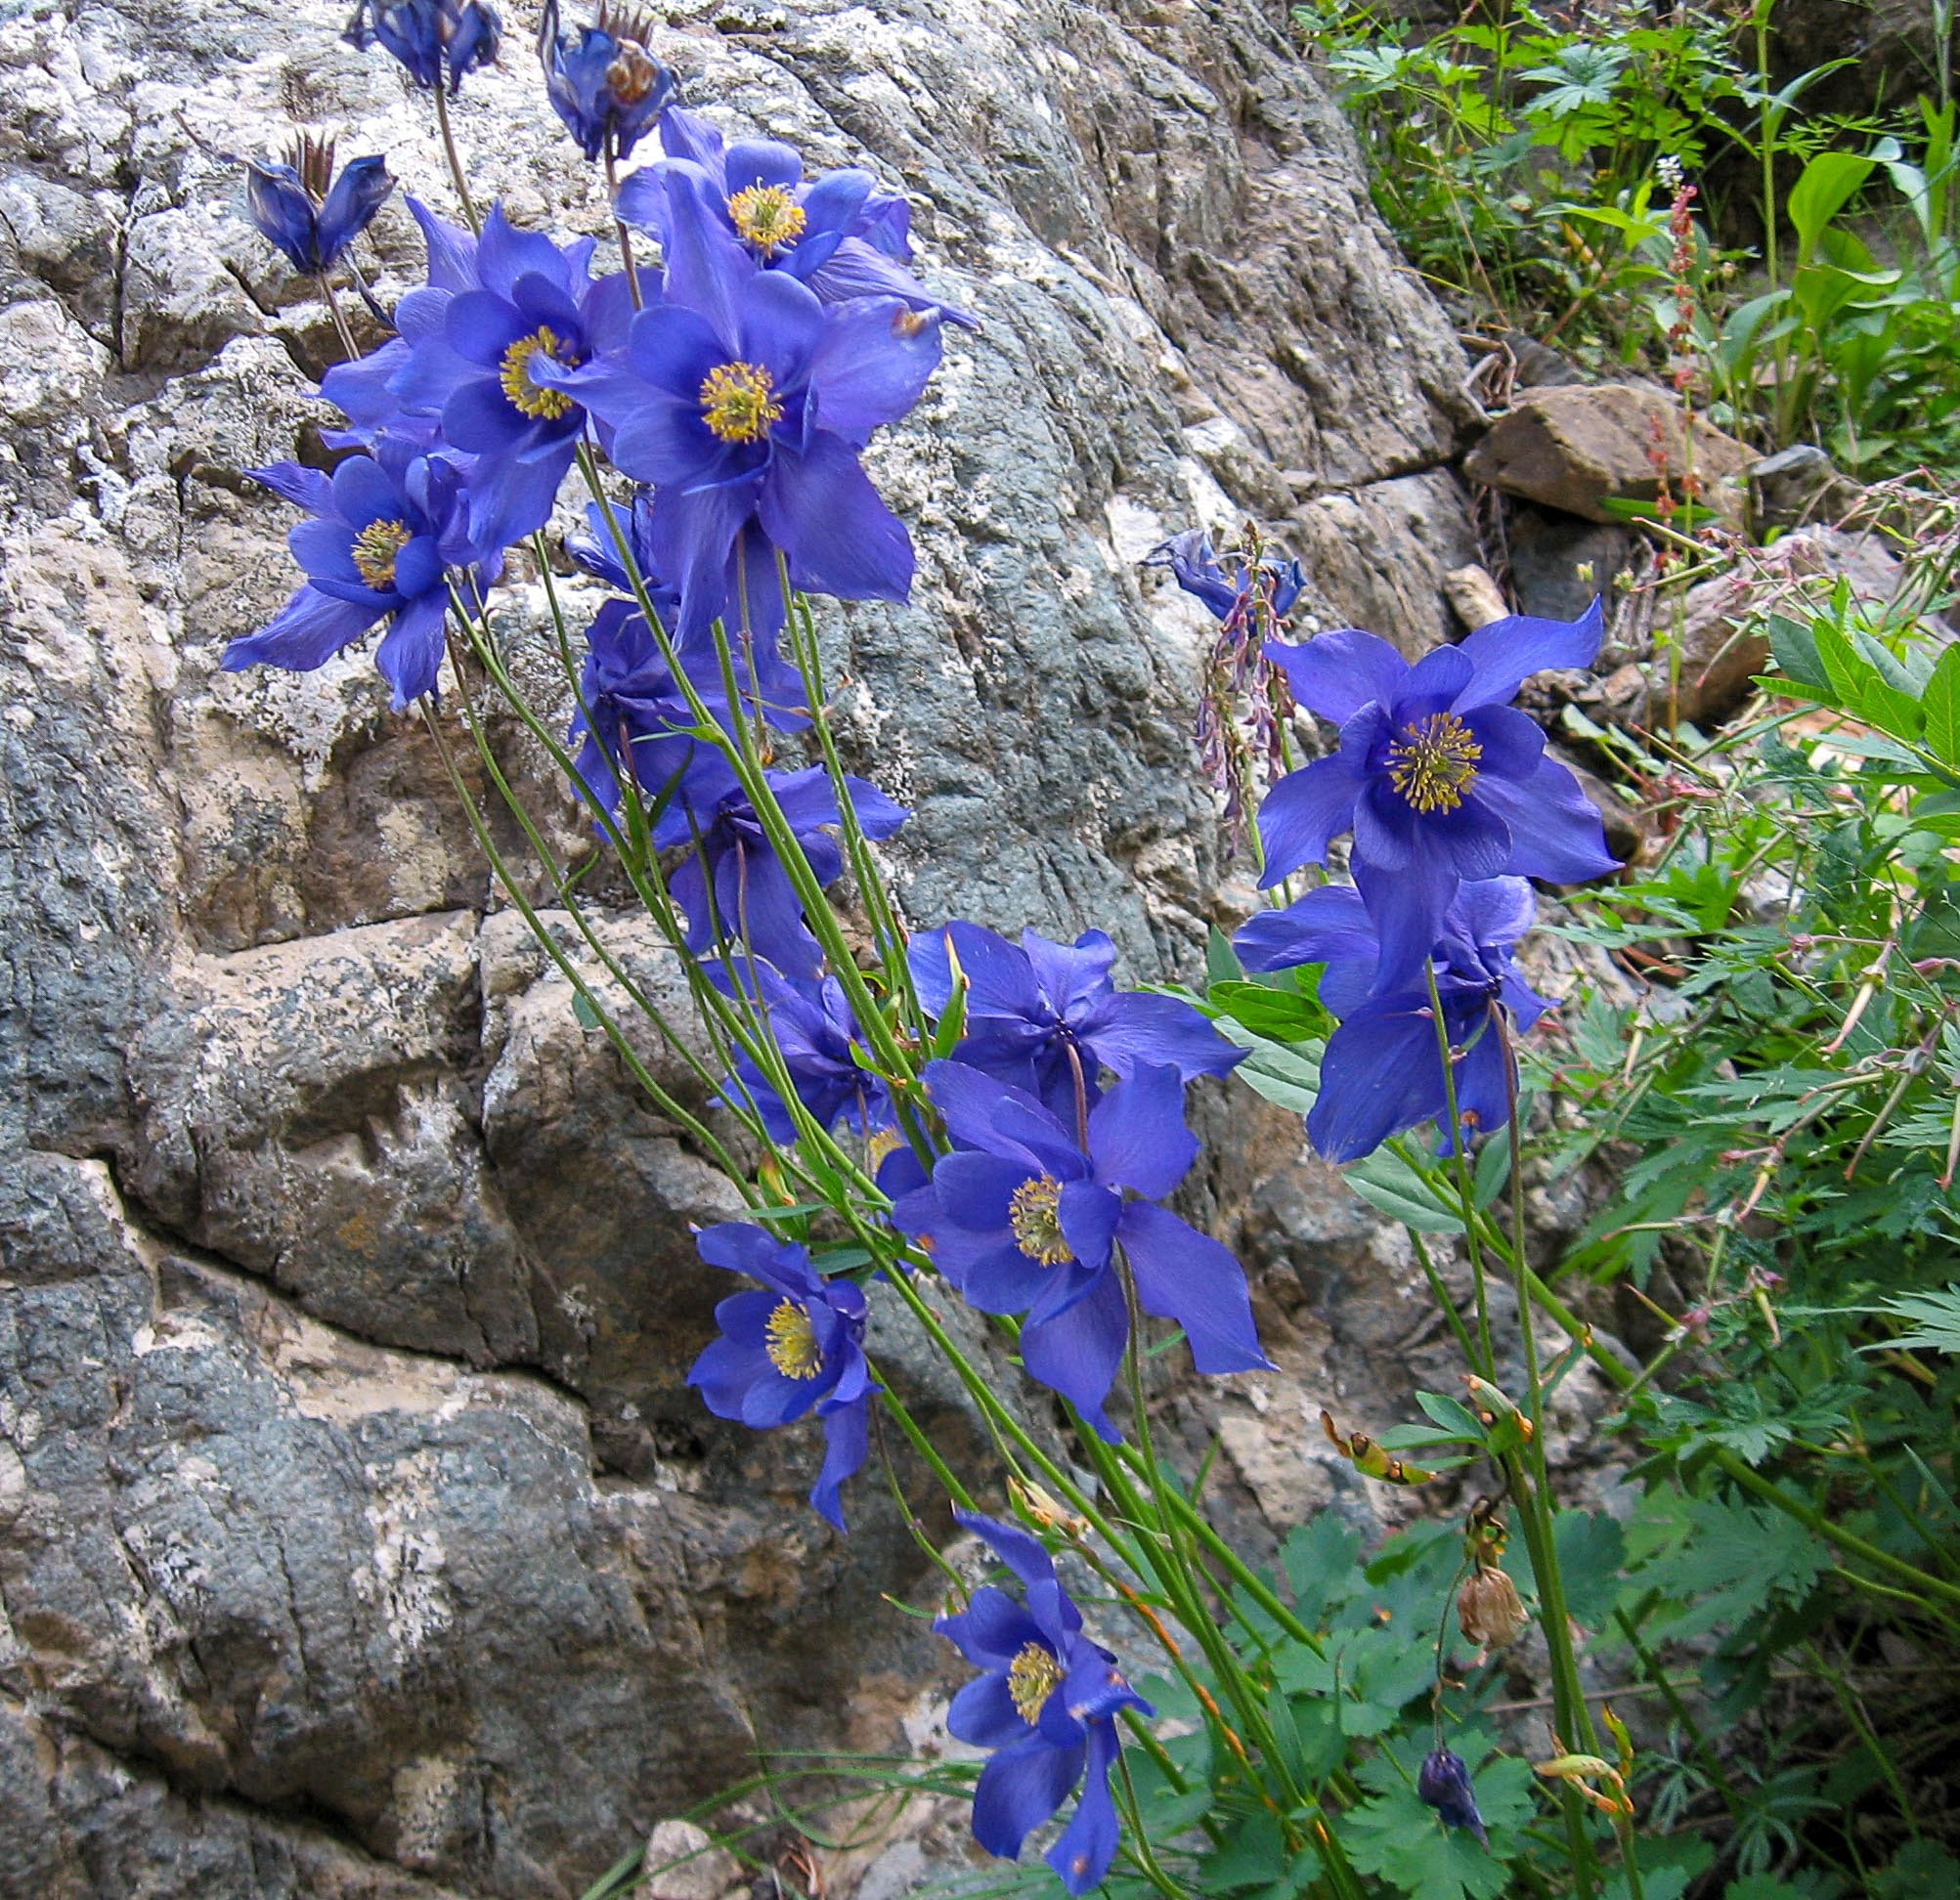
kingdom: Plantae
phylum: Tracheophyta
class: Magnoliopsida
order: Ranunculales
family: Ranunculaceae
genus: Aquilegia
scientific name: Aquilegia glandulosa
